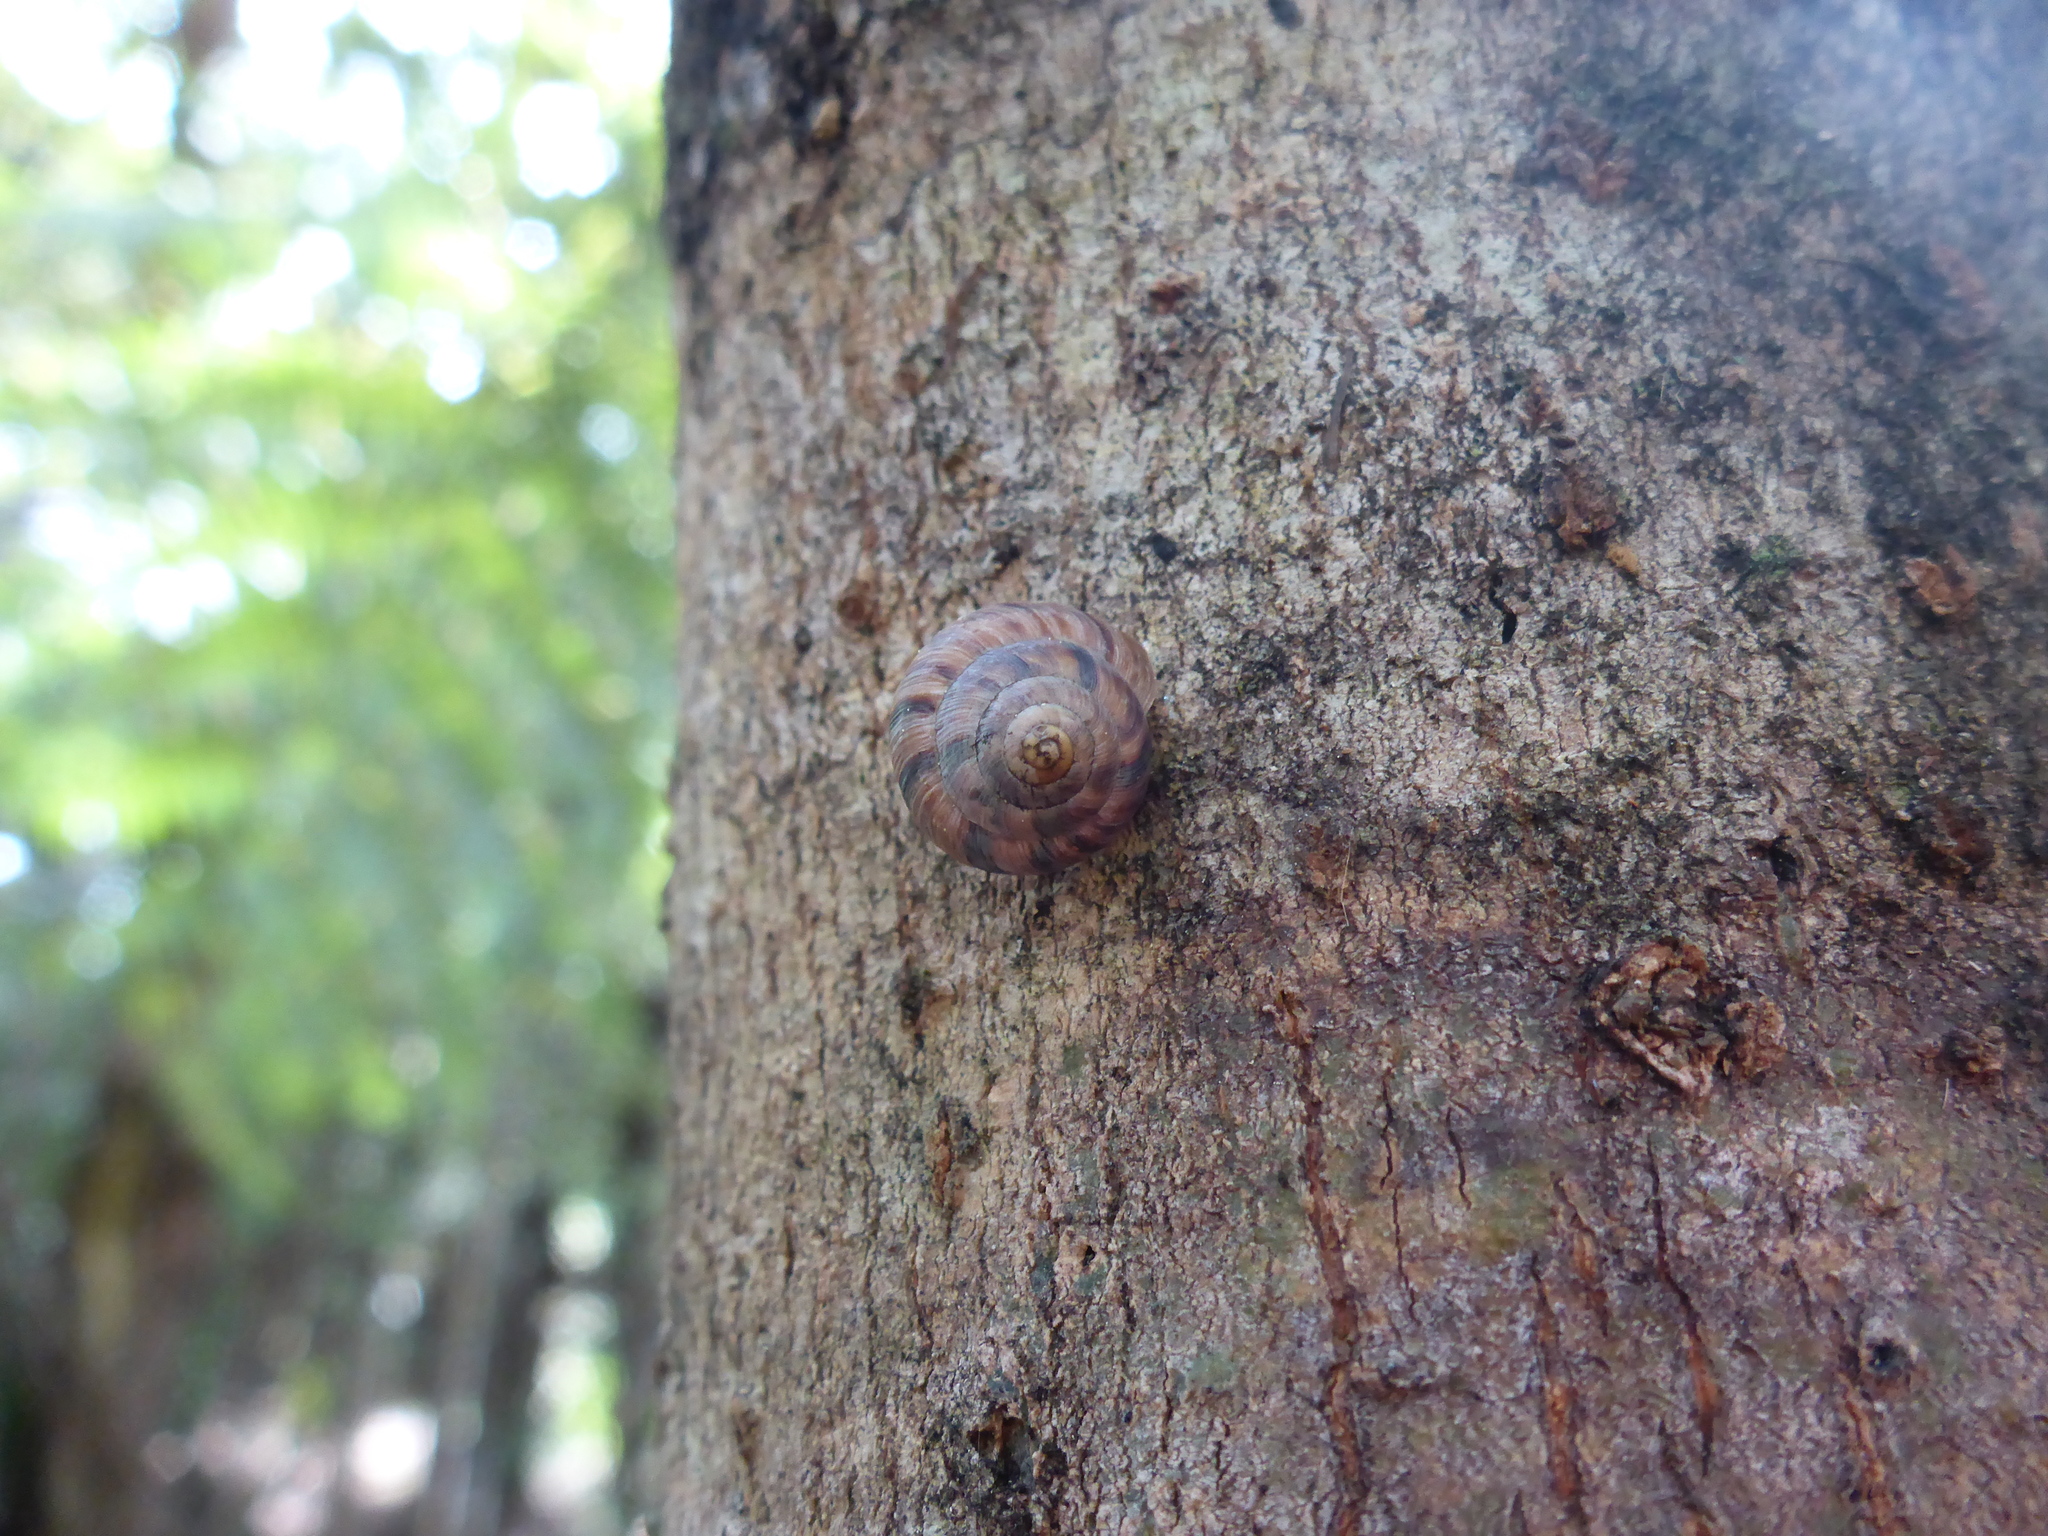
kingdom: Animalia
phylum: Mollusca
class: Gastropoda
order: Stylommatophora
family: Charopidae
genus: Serpho
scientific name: Serpho
